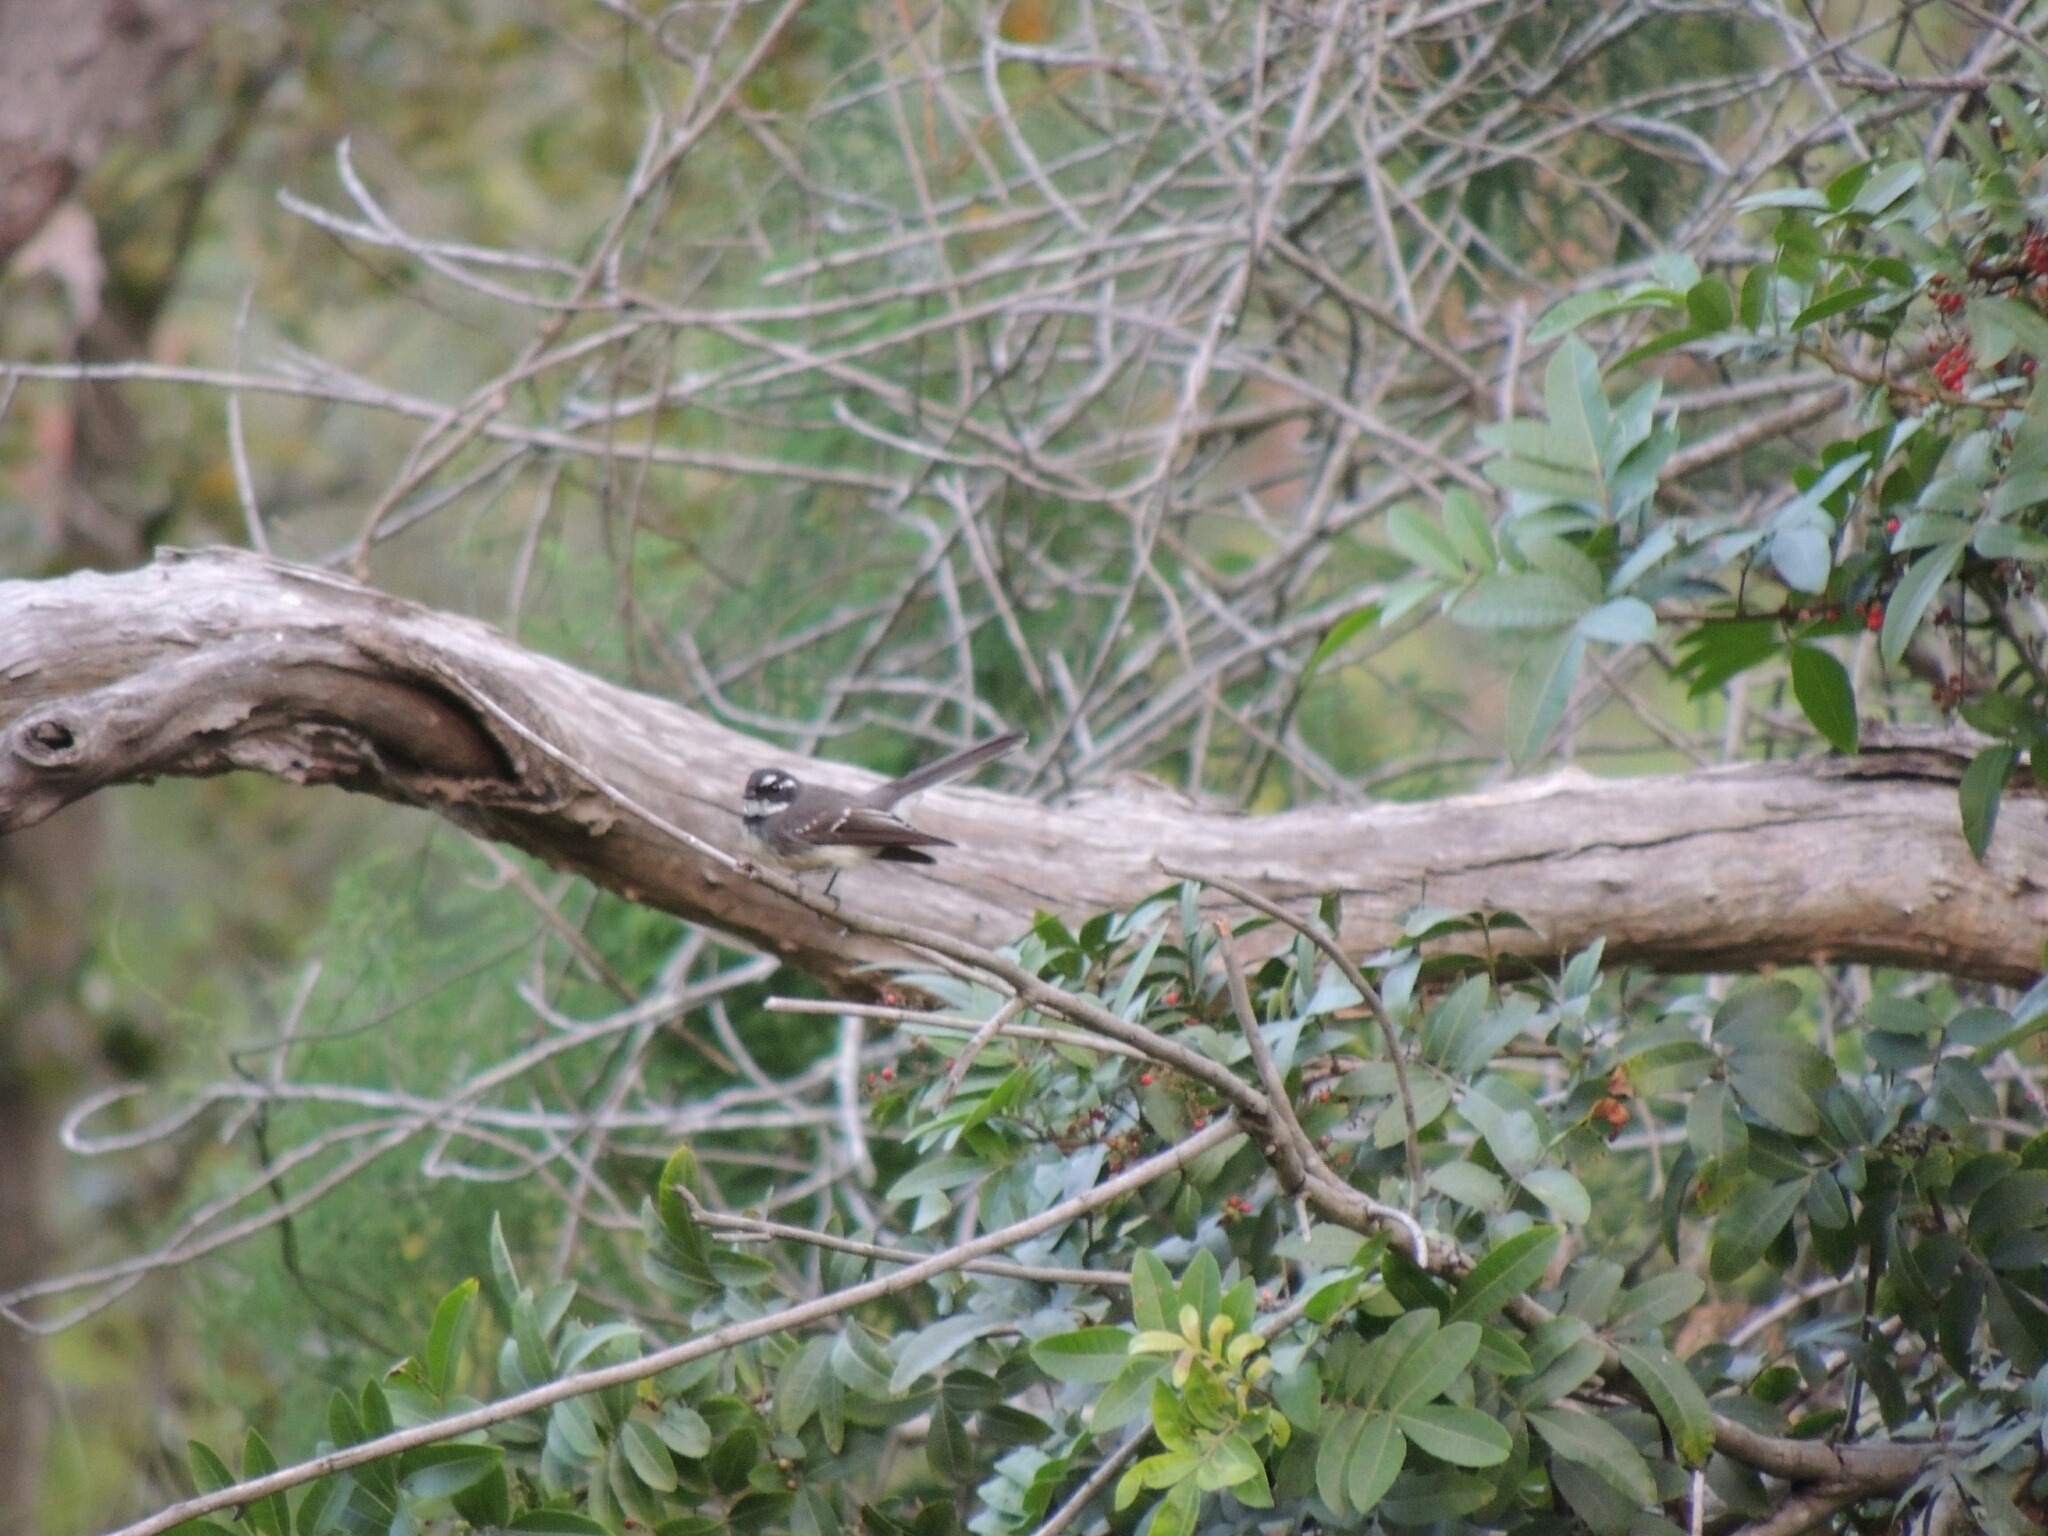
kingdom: Animalia
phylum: Chordata
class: Aves
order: Passeriformes
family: Rhipiduridae
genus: Rhipidura
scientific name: Rhipidura albiscapa
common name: Grey fantail
